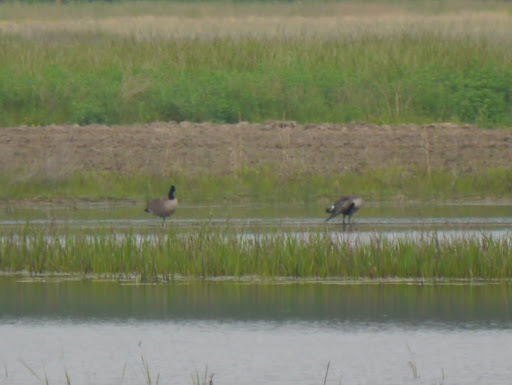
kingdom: Animalia
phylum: Chordata
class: Aves
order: Anseriformes
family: Anatidae
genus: Branta
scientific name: Branta canadensis
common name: Canada goose
